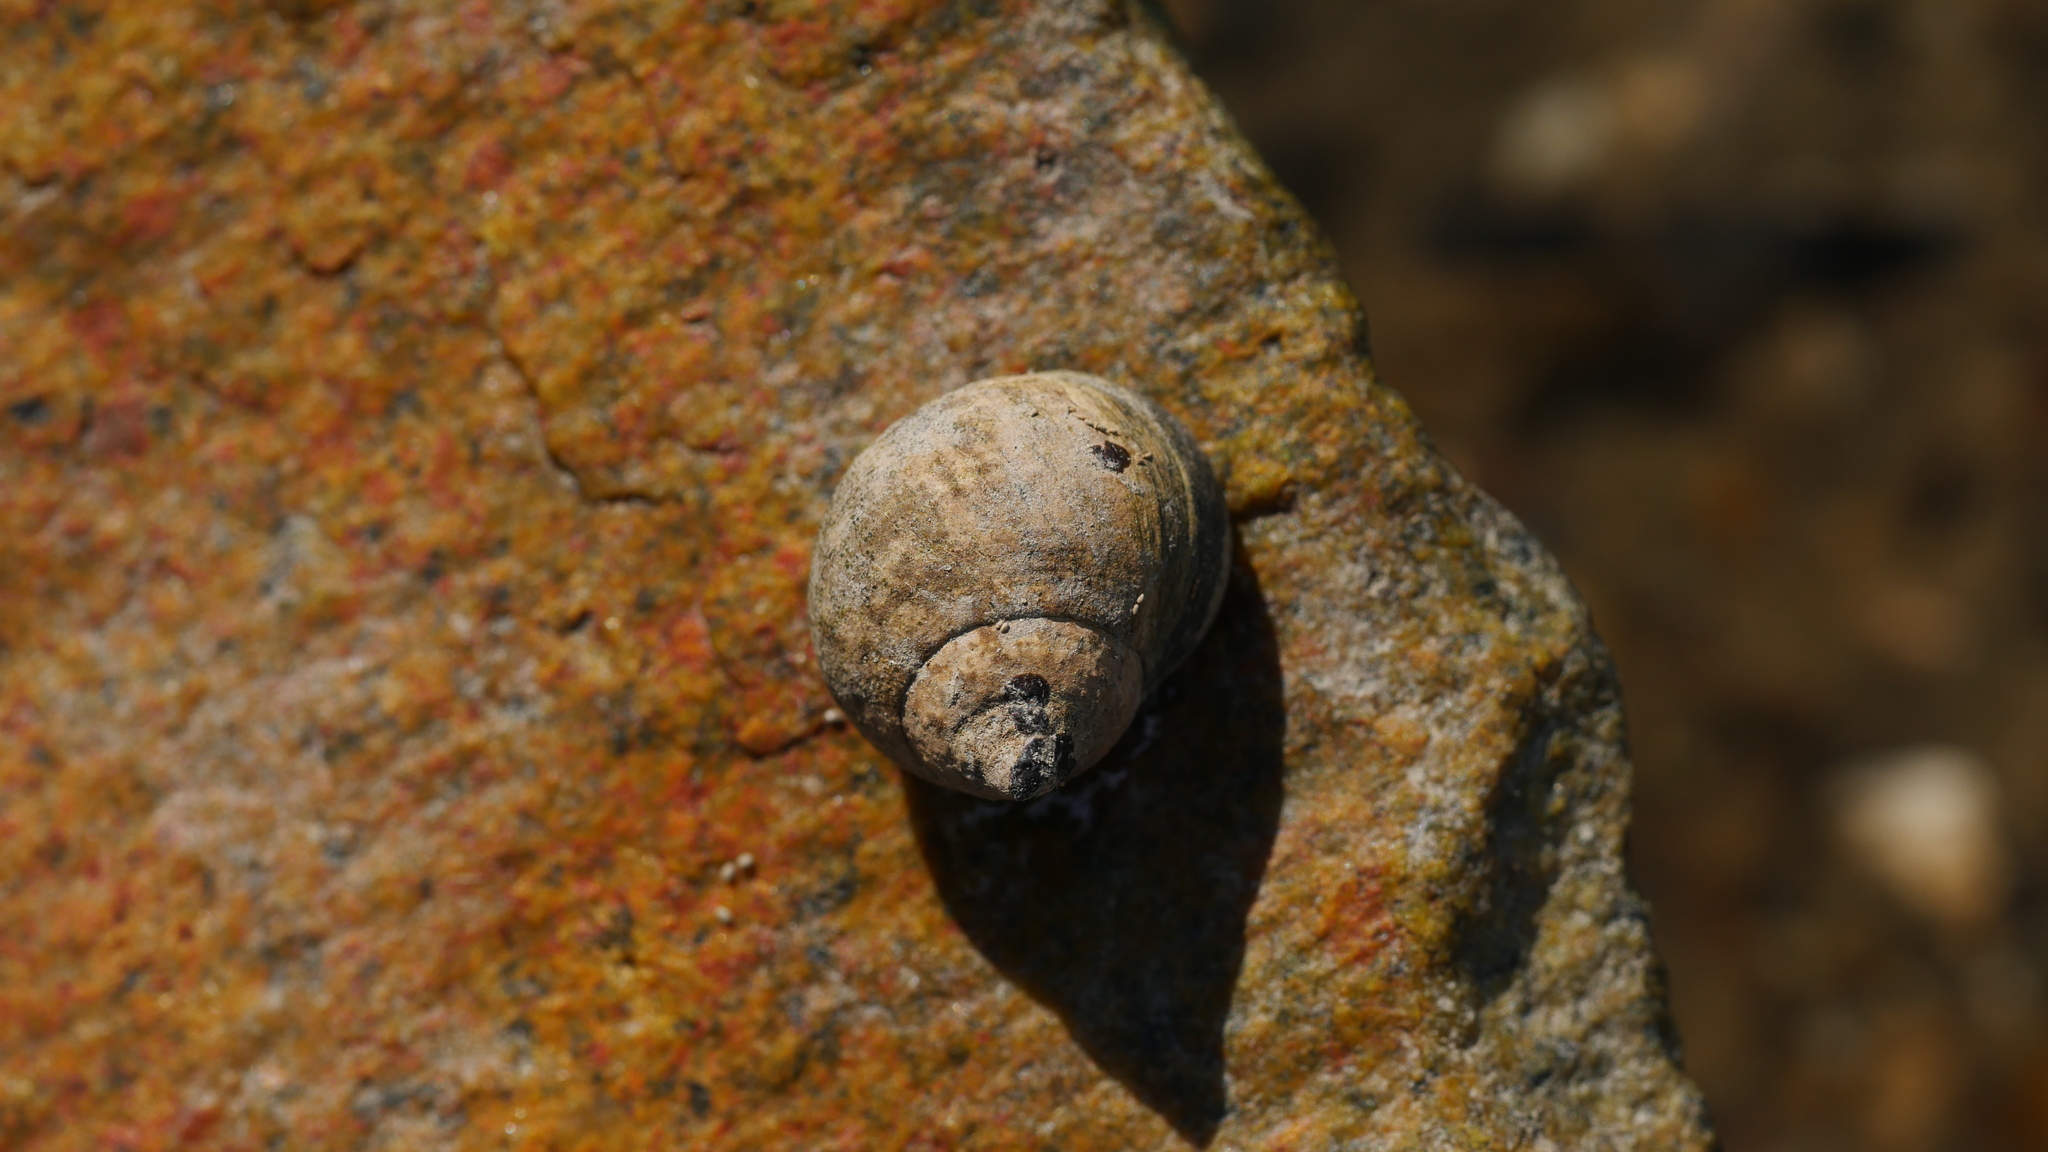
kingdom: Animalia
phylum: Mollusca
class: Gastropoda
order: Littorinimorpha
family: Littorinidae
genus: Littorina
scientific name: Littorina littorea
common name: Common periwinkle
